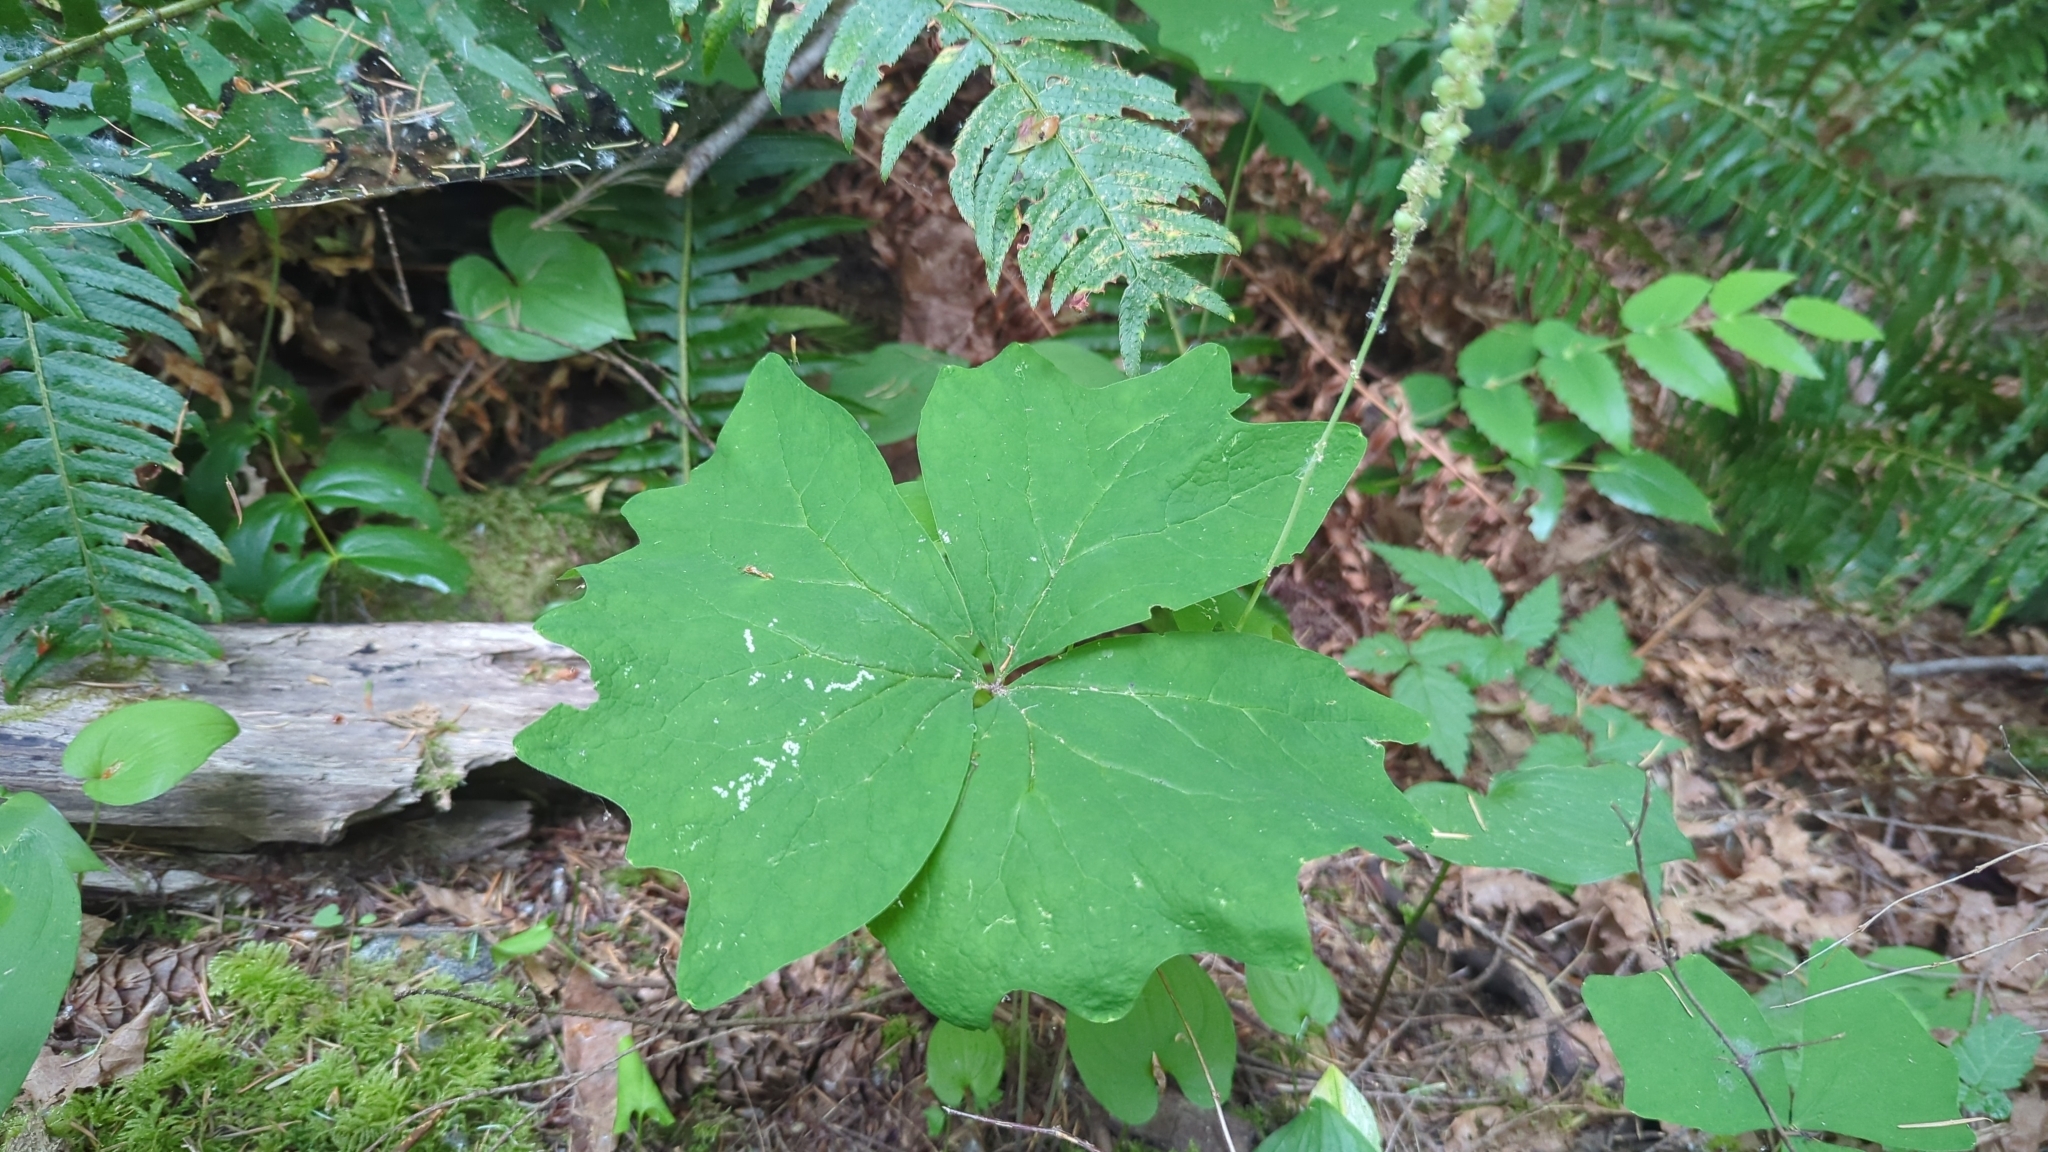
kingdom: Plantae
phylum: Tracheophyta
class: Magnoliopsida
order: Ranunculales
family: Berberidaceae
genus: Achlys
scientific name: Achlys triphylla
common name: Vanilla-leaf
